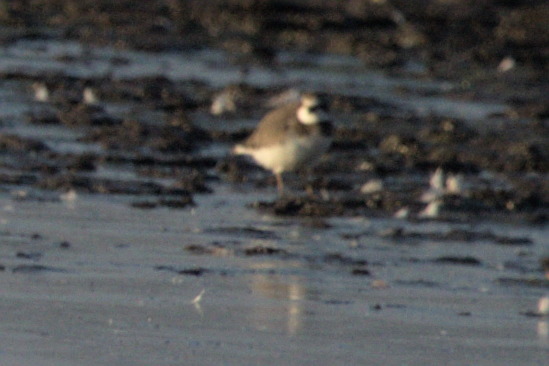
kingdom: Animalia
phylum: Chordata
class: Aves
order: Charadriiformes
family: Charadriidae
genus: Charadrius
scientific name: Charadrius semipalmatus
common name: Semipalmated plover
